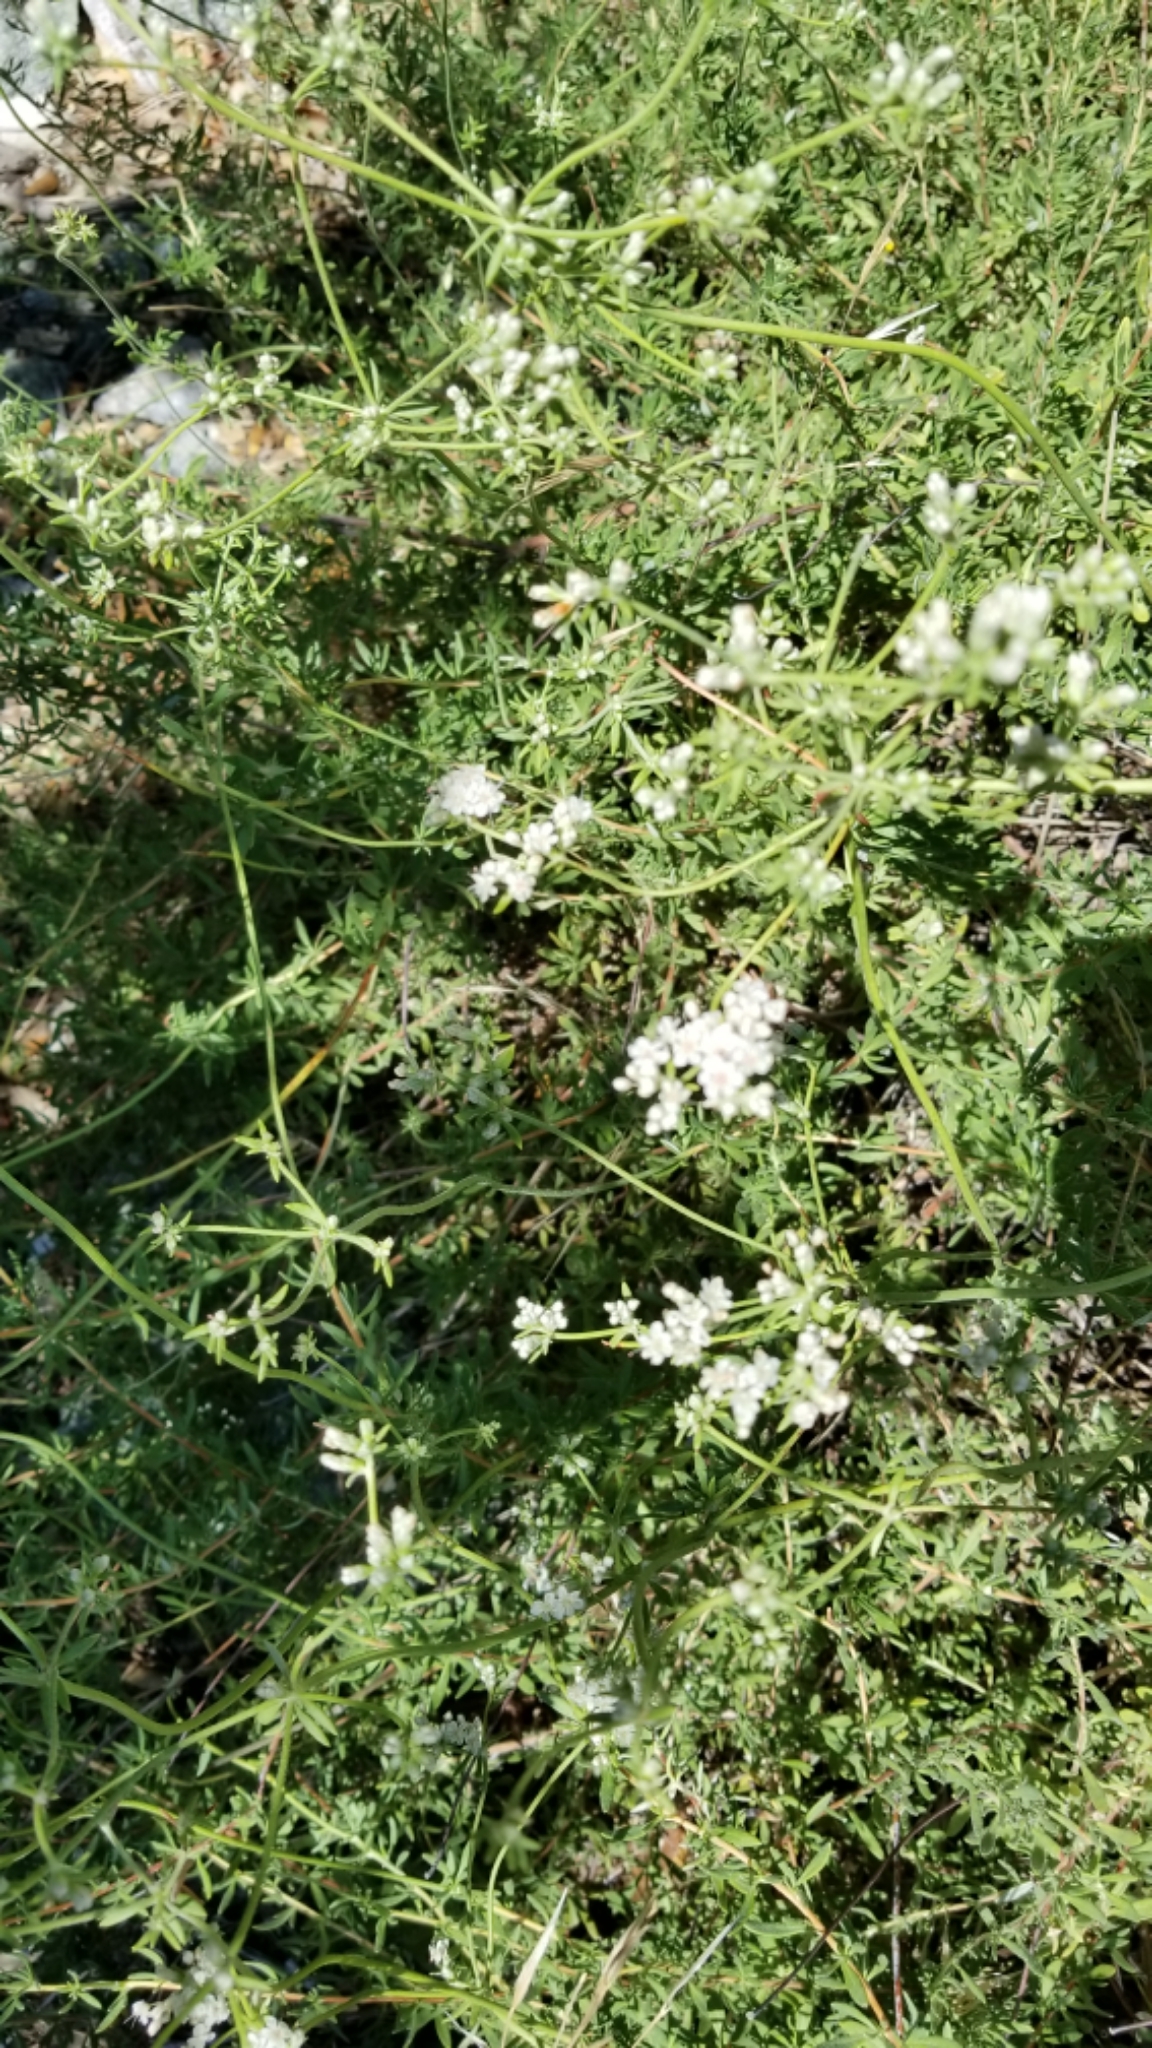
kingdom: Plantae
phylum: Tracheophyta
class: Magnoliopsida
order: Caryophyllales
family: Polygonaceae
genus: Eriogonum
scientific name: Eriogonum fasciculatum
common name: California wild buckwheat
